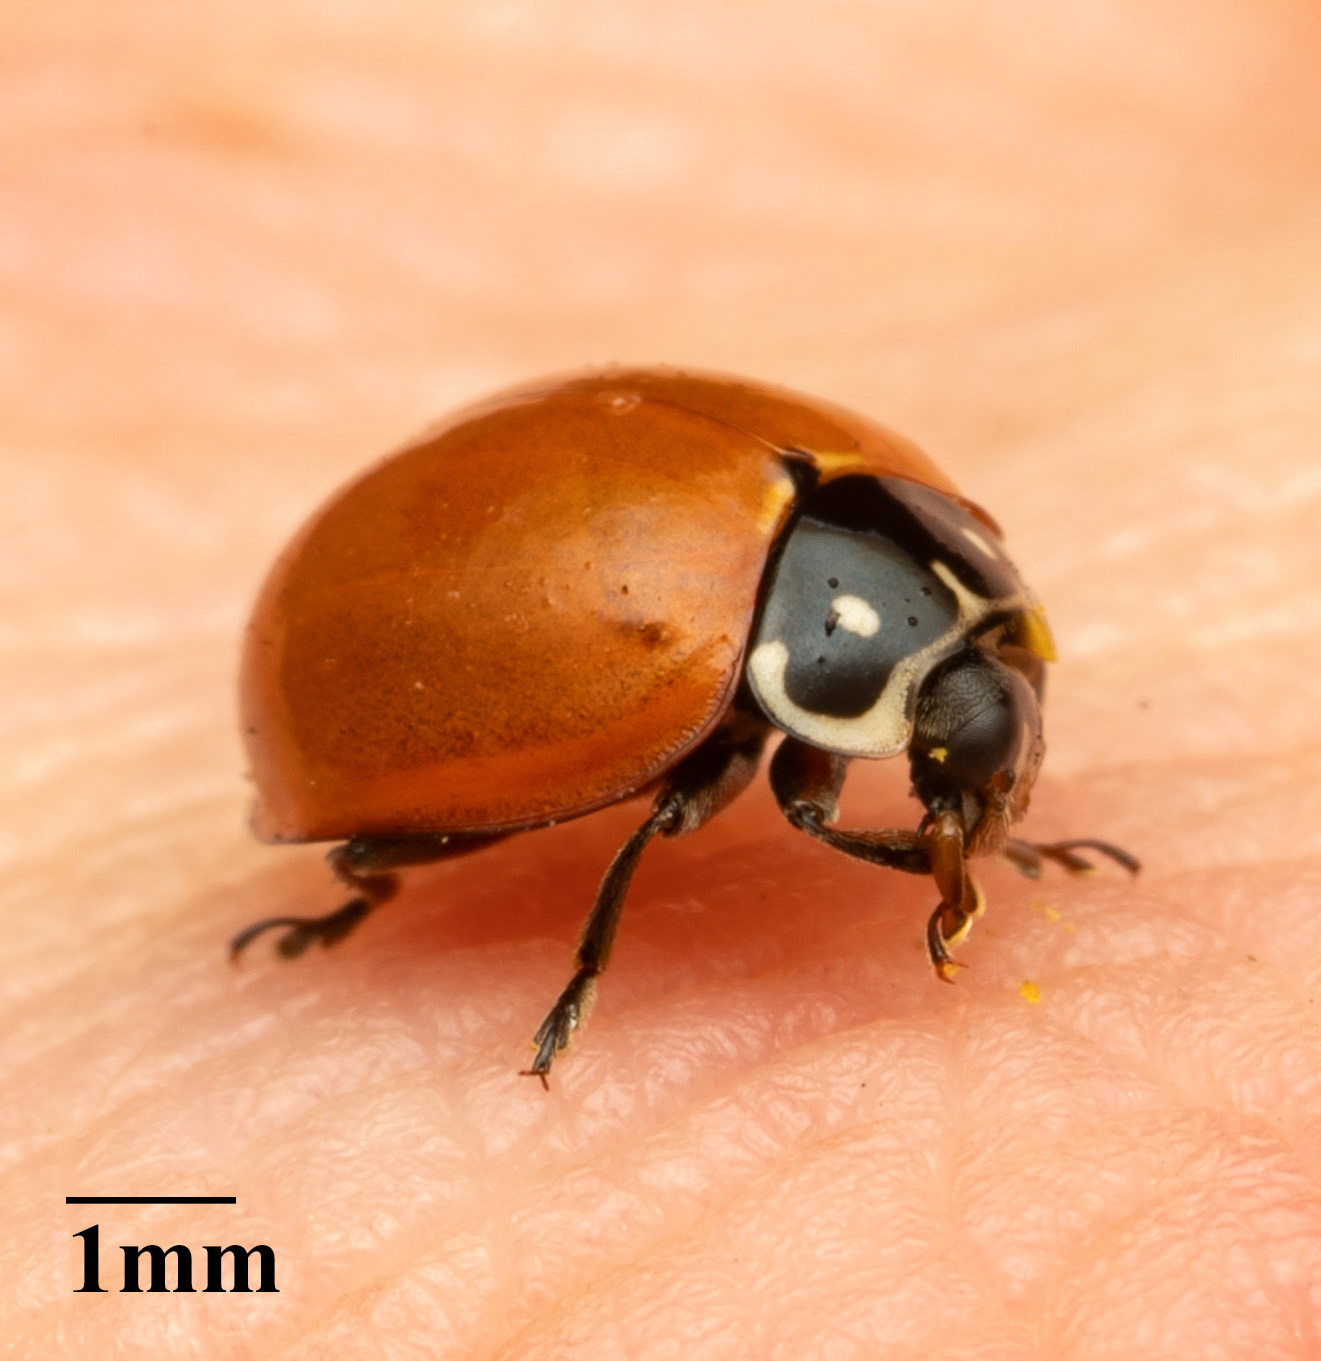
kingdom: Animalia
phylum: Arthropoda
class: Insecta
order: Coleoptera
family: Coccinellidae
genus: Cycloneda
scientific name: Cycloneda sanguinea
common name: Ladybird beetle
